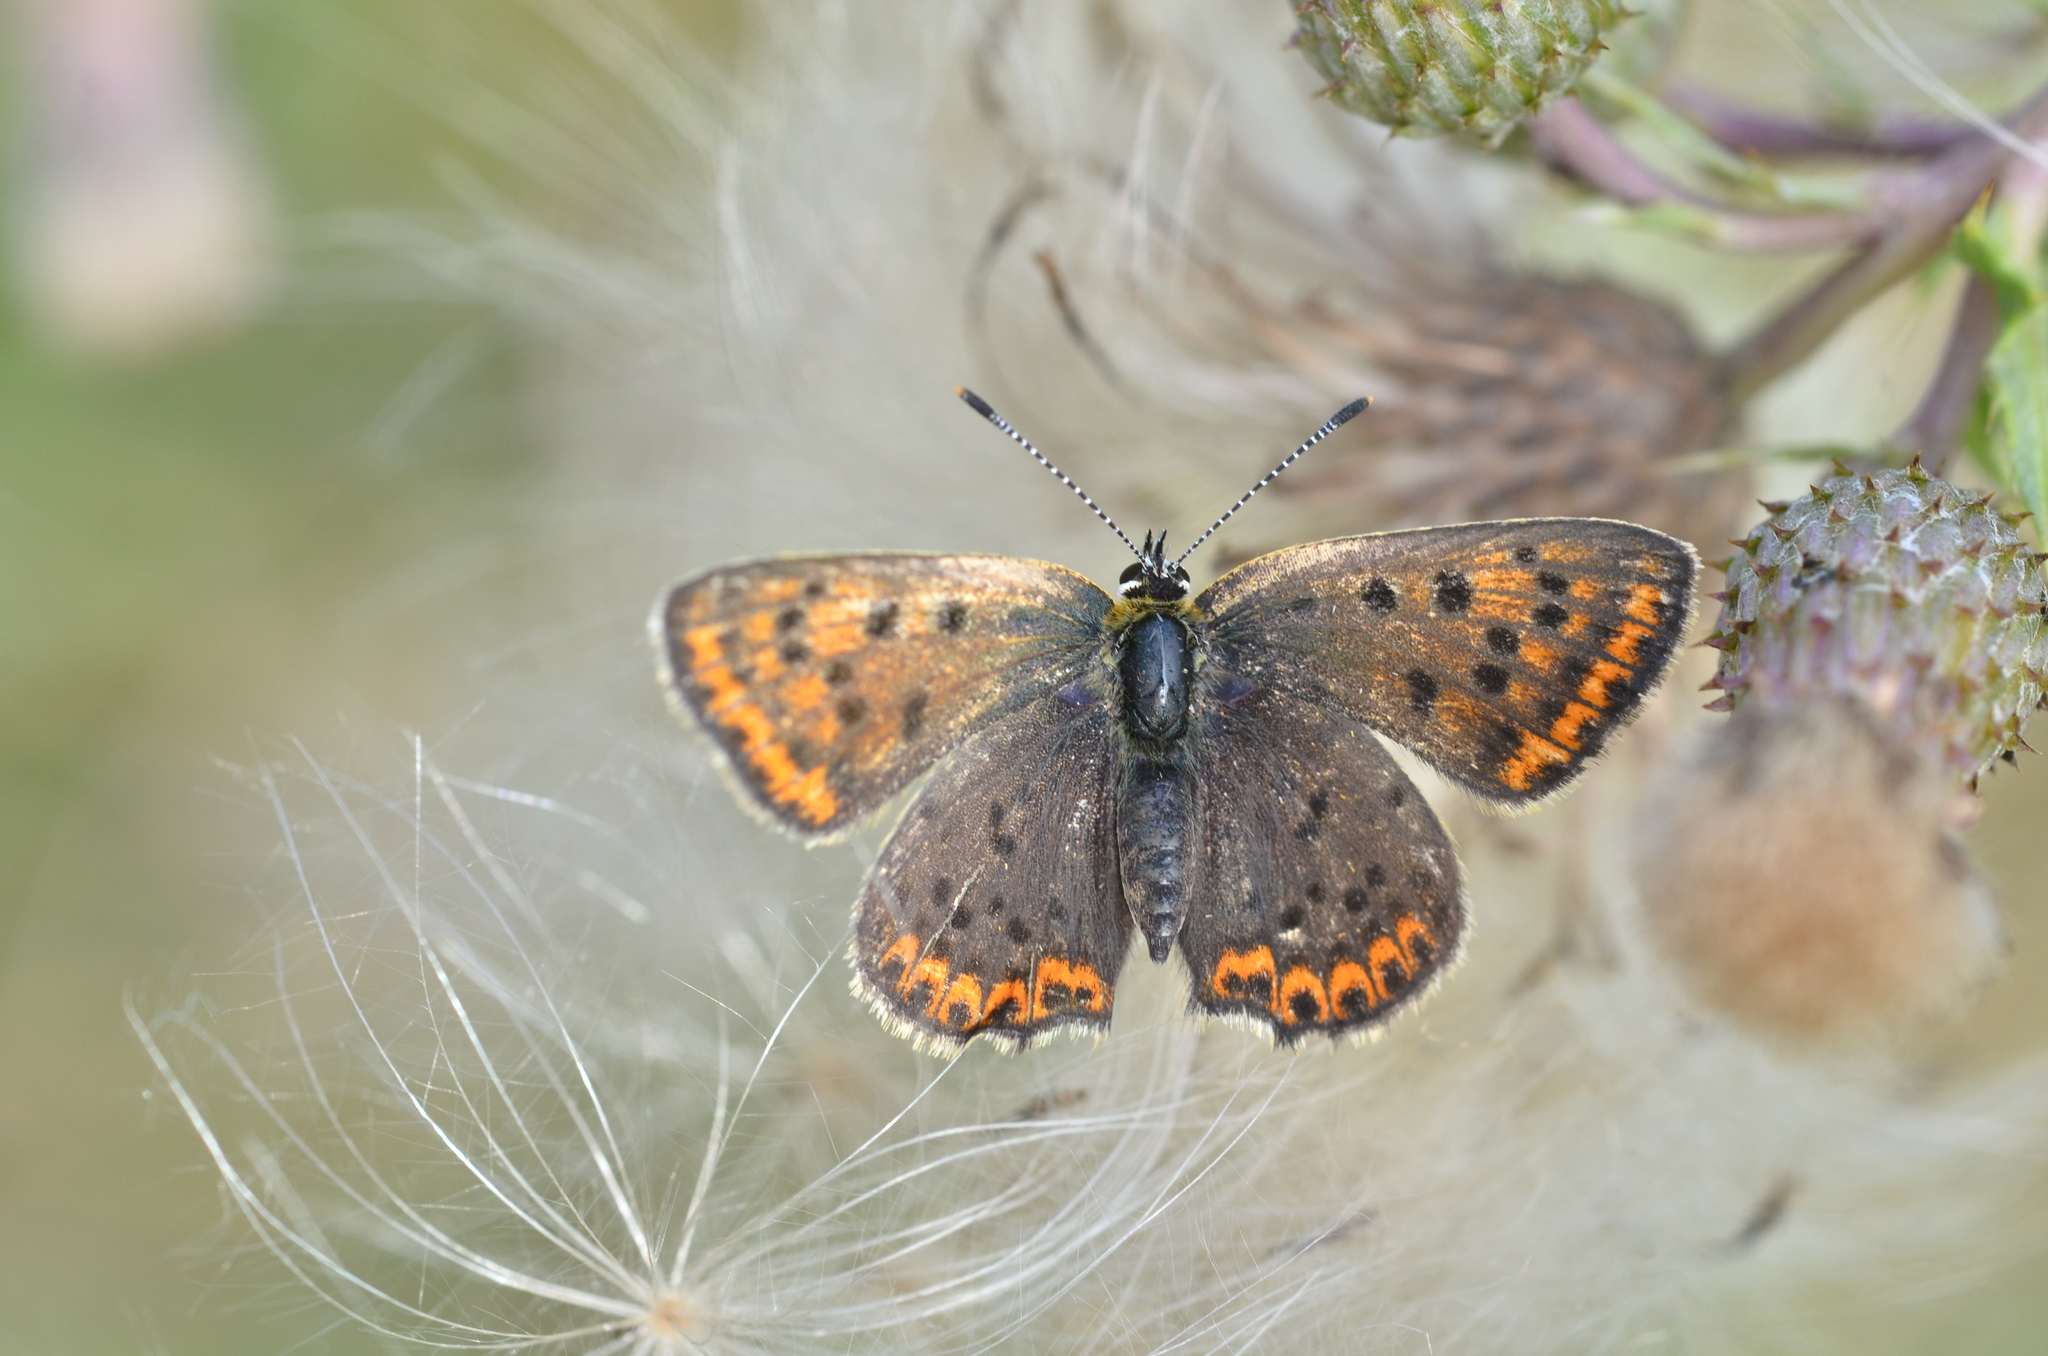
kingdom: Animalia
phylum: Arthropoda
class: Insecta
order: Lepidoptera
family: Lycaenidae
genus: Loweia
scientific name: Loweia tityrus
